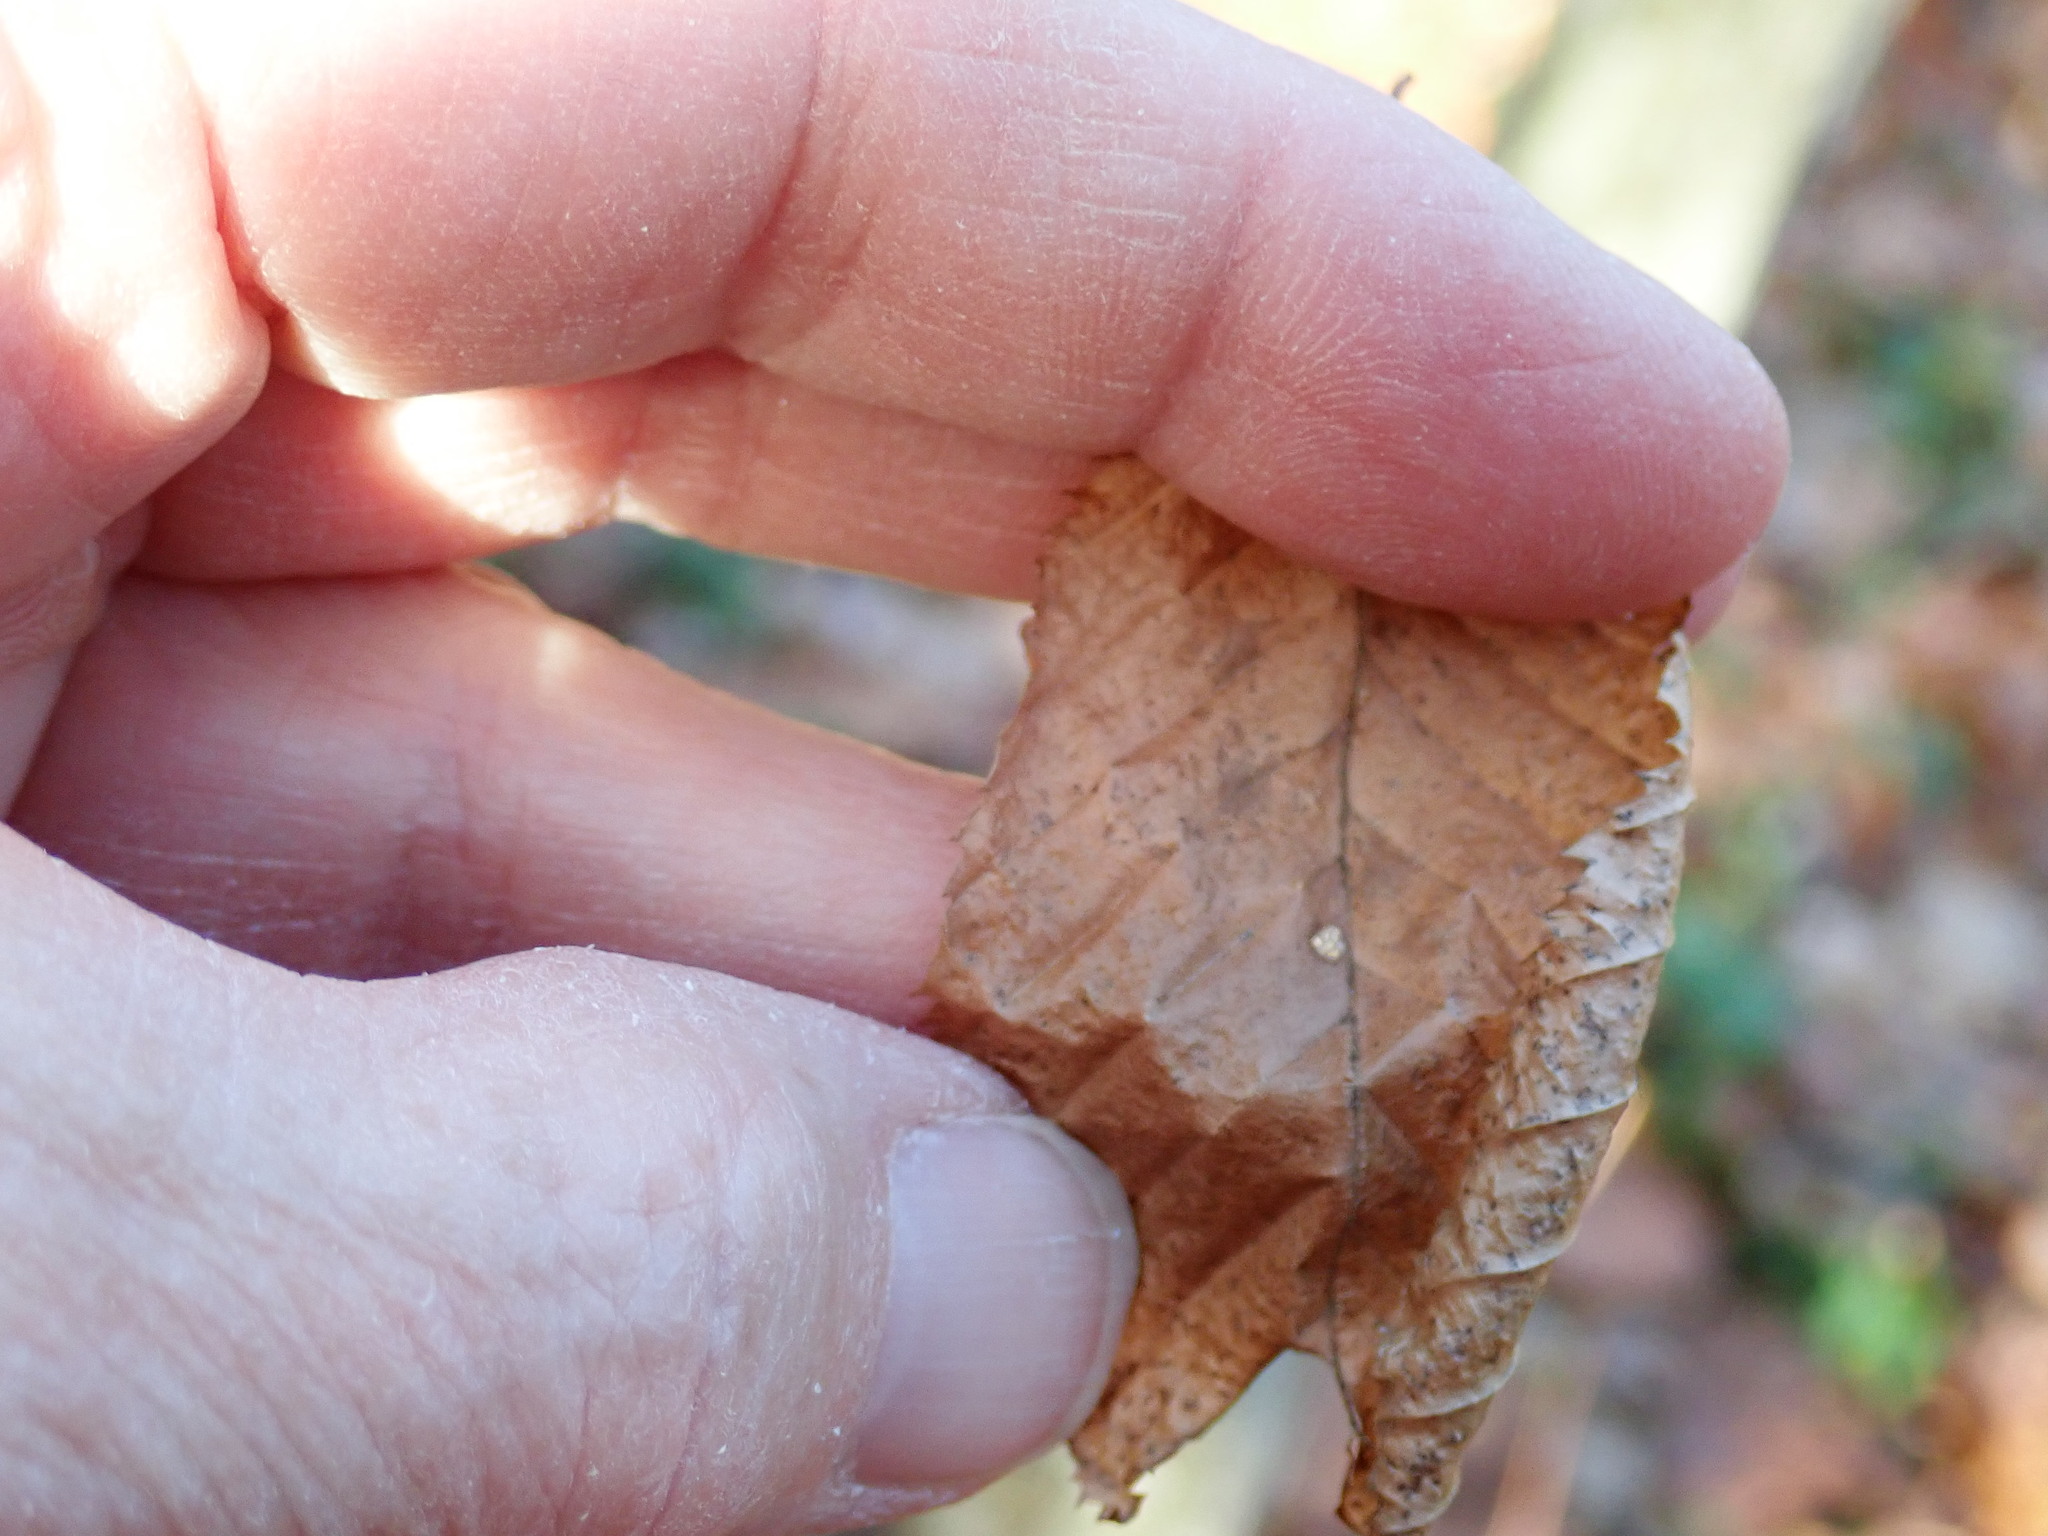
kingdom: Plantae
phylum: Tracheophyta
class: Magnoliopsida
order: Fagales
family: Betulaceae
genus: Carpinus
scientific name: Carpinus caroliniana
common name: American hornbeam
